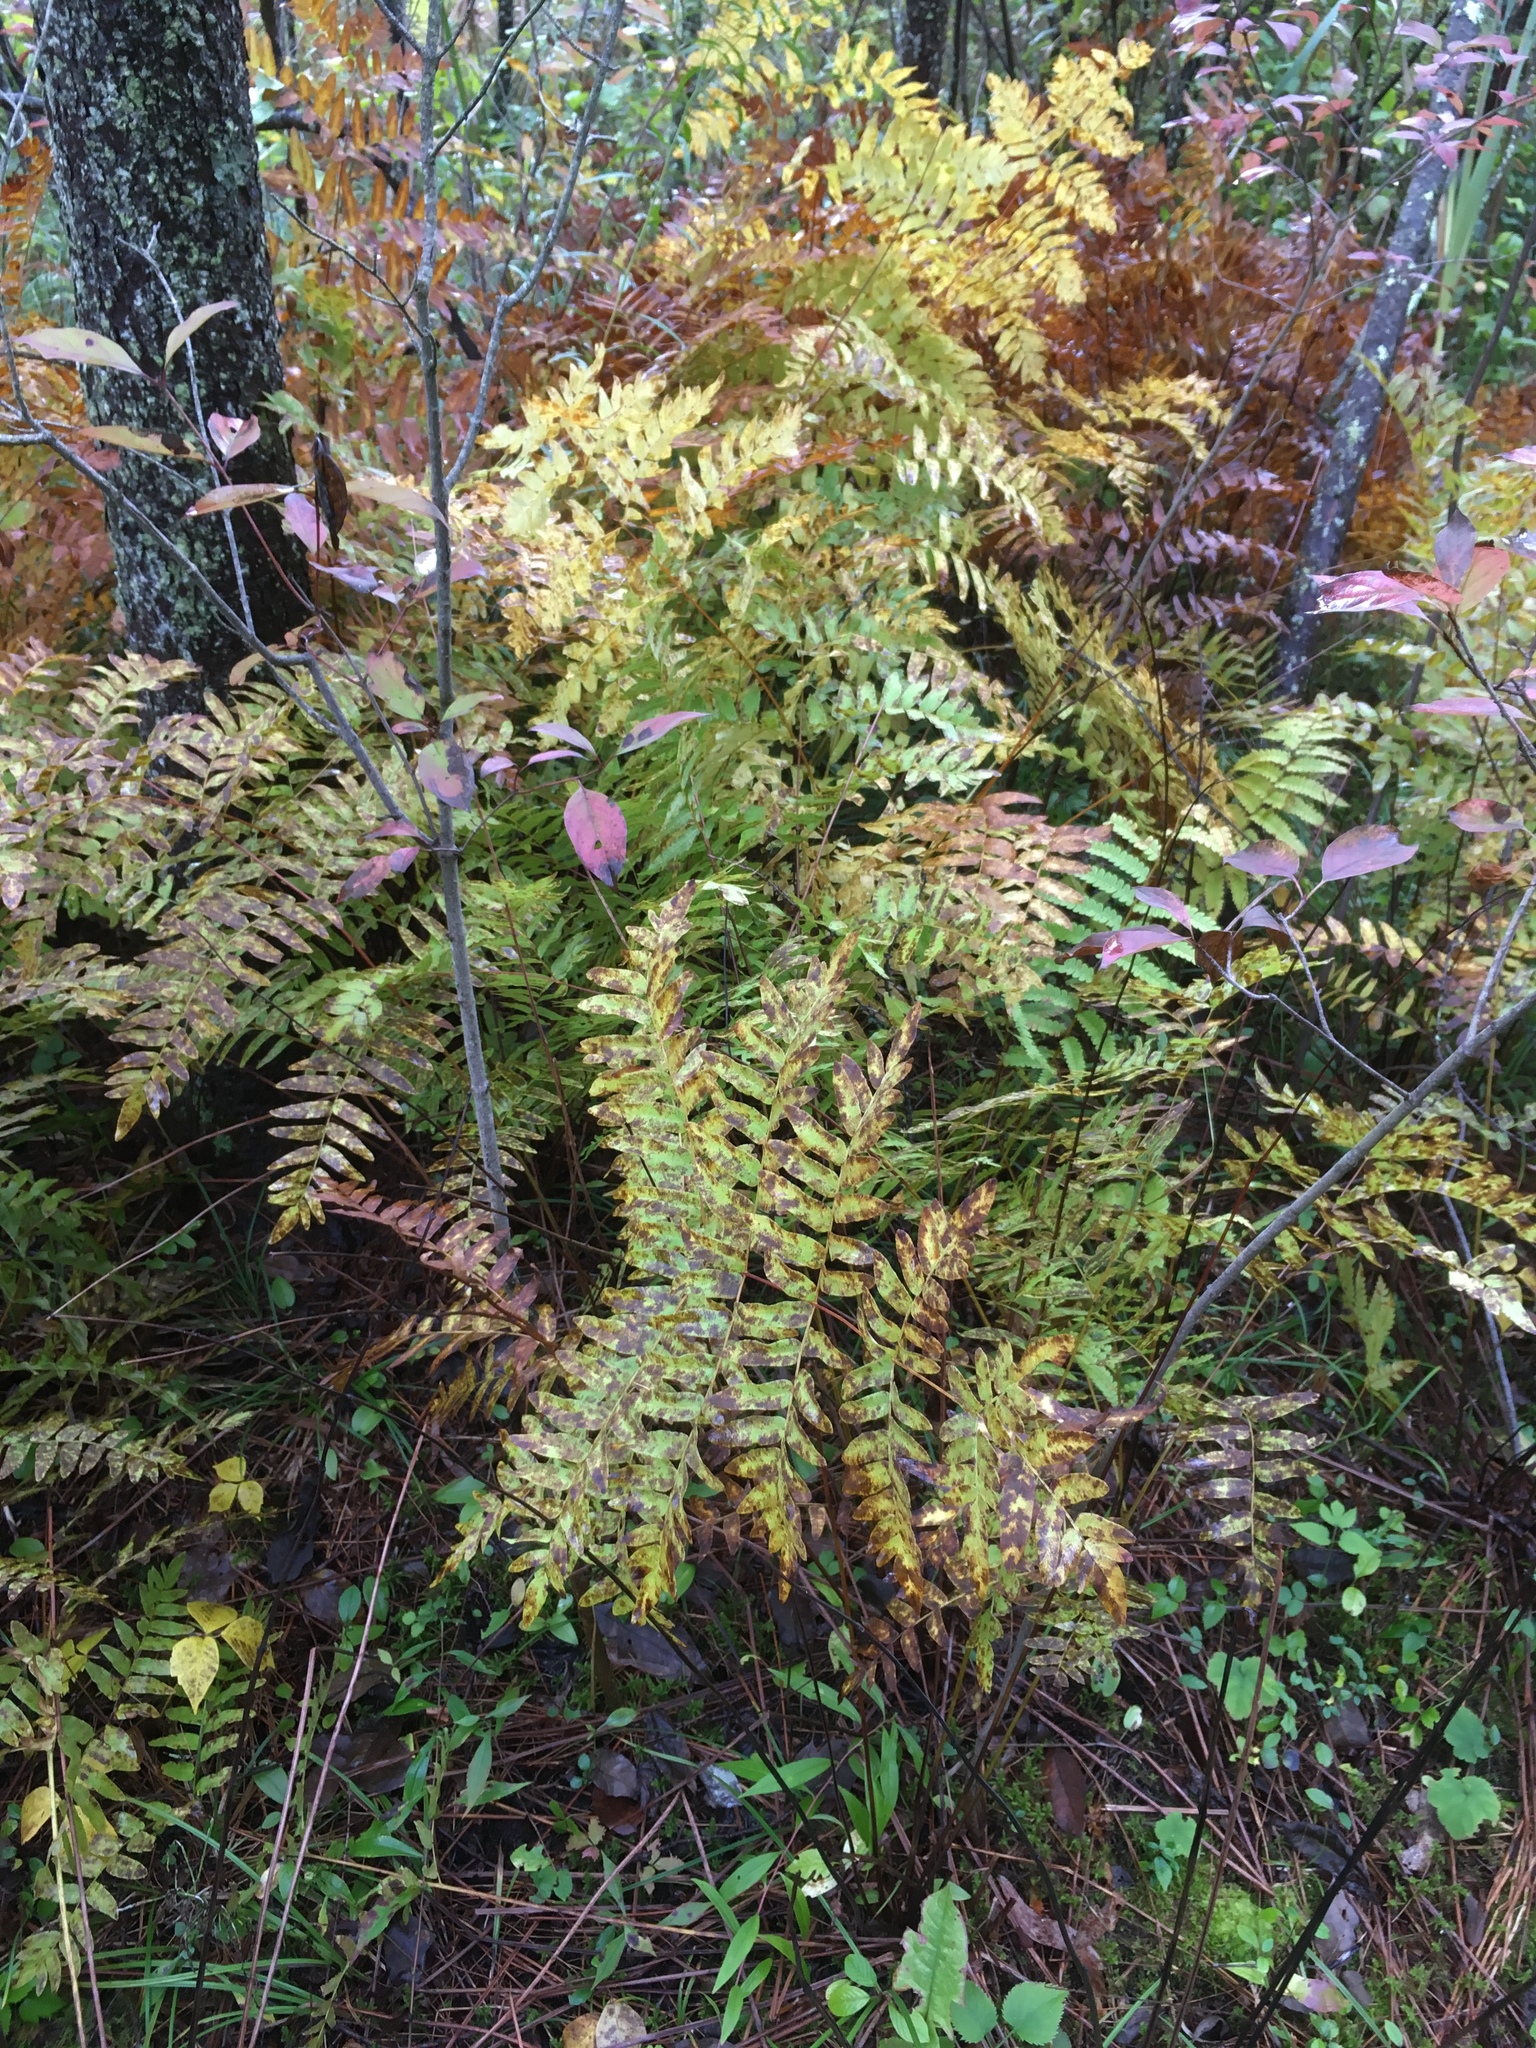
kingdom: Plantae
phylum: Tracheophyta
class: Polypodiopsida
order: Osmundales
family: Osmundaceae
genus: Osmunda
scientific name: Osmunda spectabilis
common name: American royal fern
